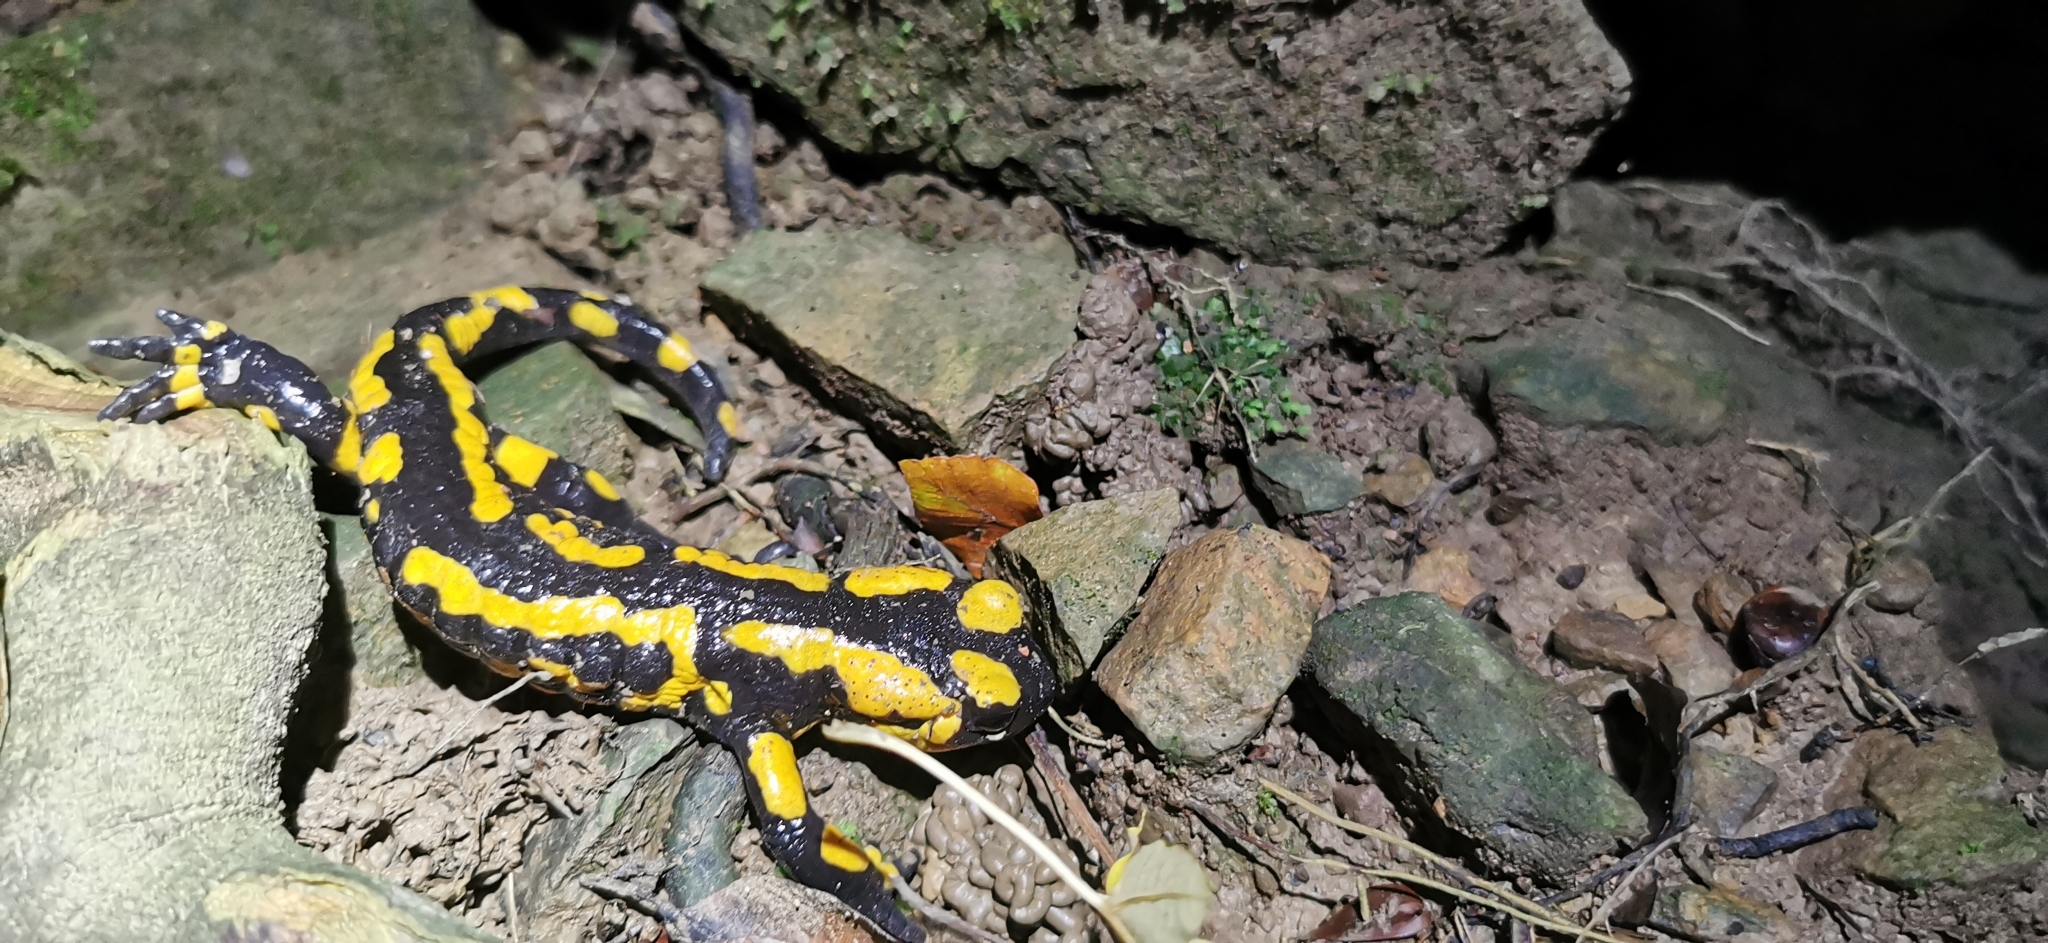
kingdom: Animalia
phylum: Chordata
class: Amphibia
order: Caudata
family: Salamandridae
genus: Salamandra
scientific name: Salamandra salamandra
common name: Fire salamander
